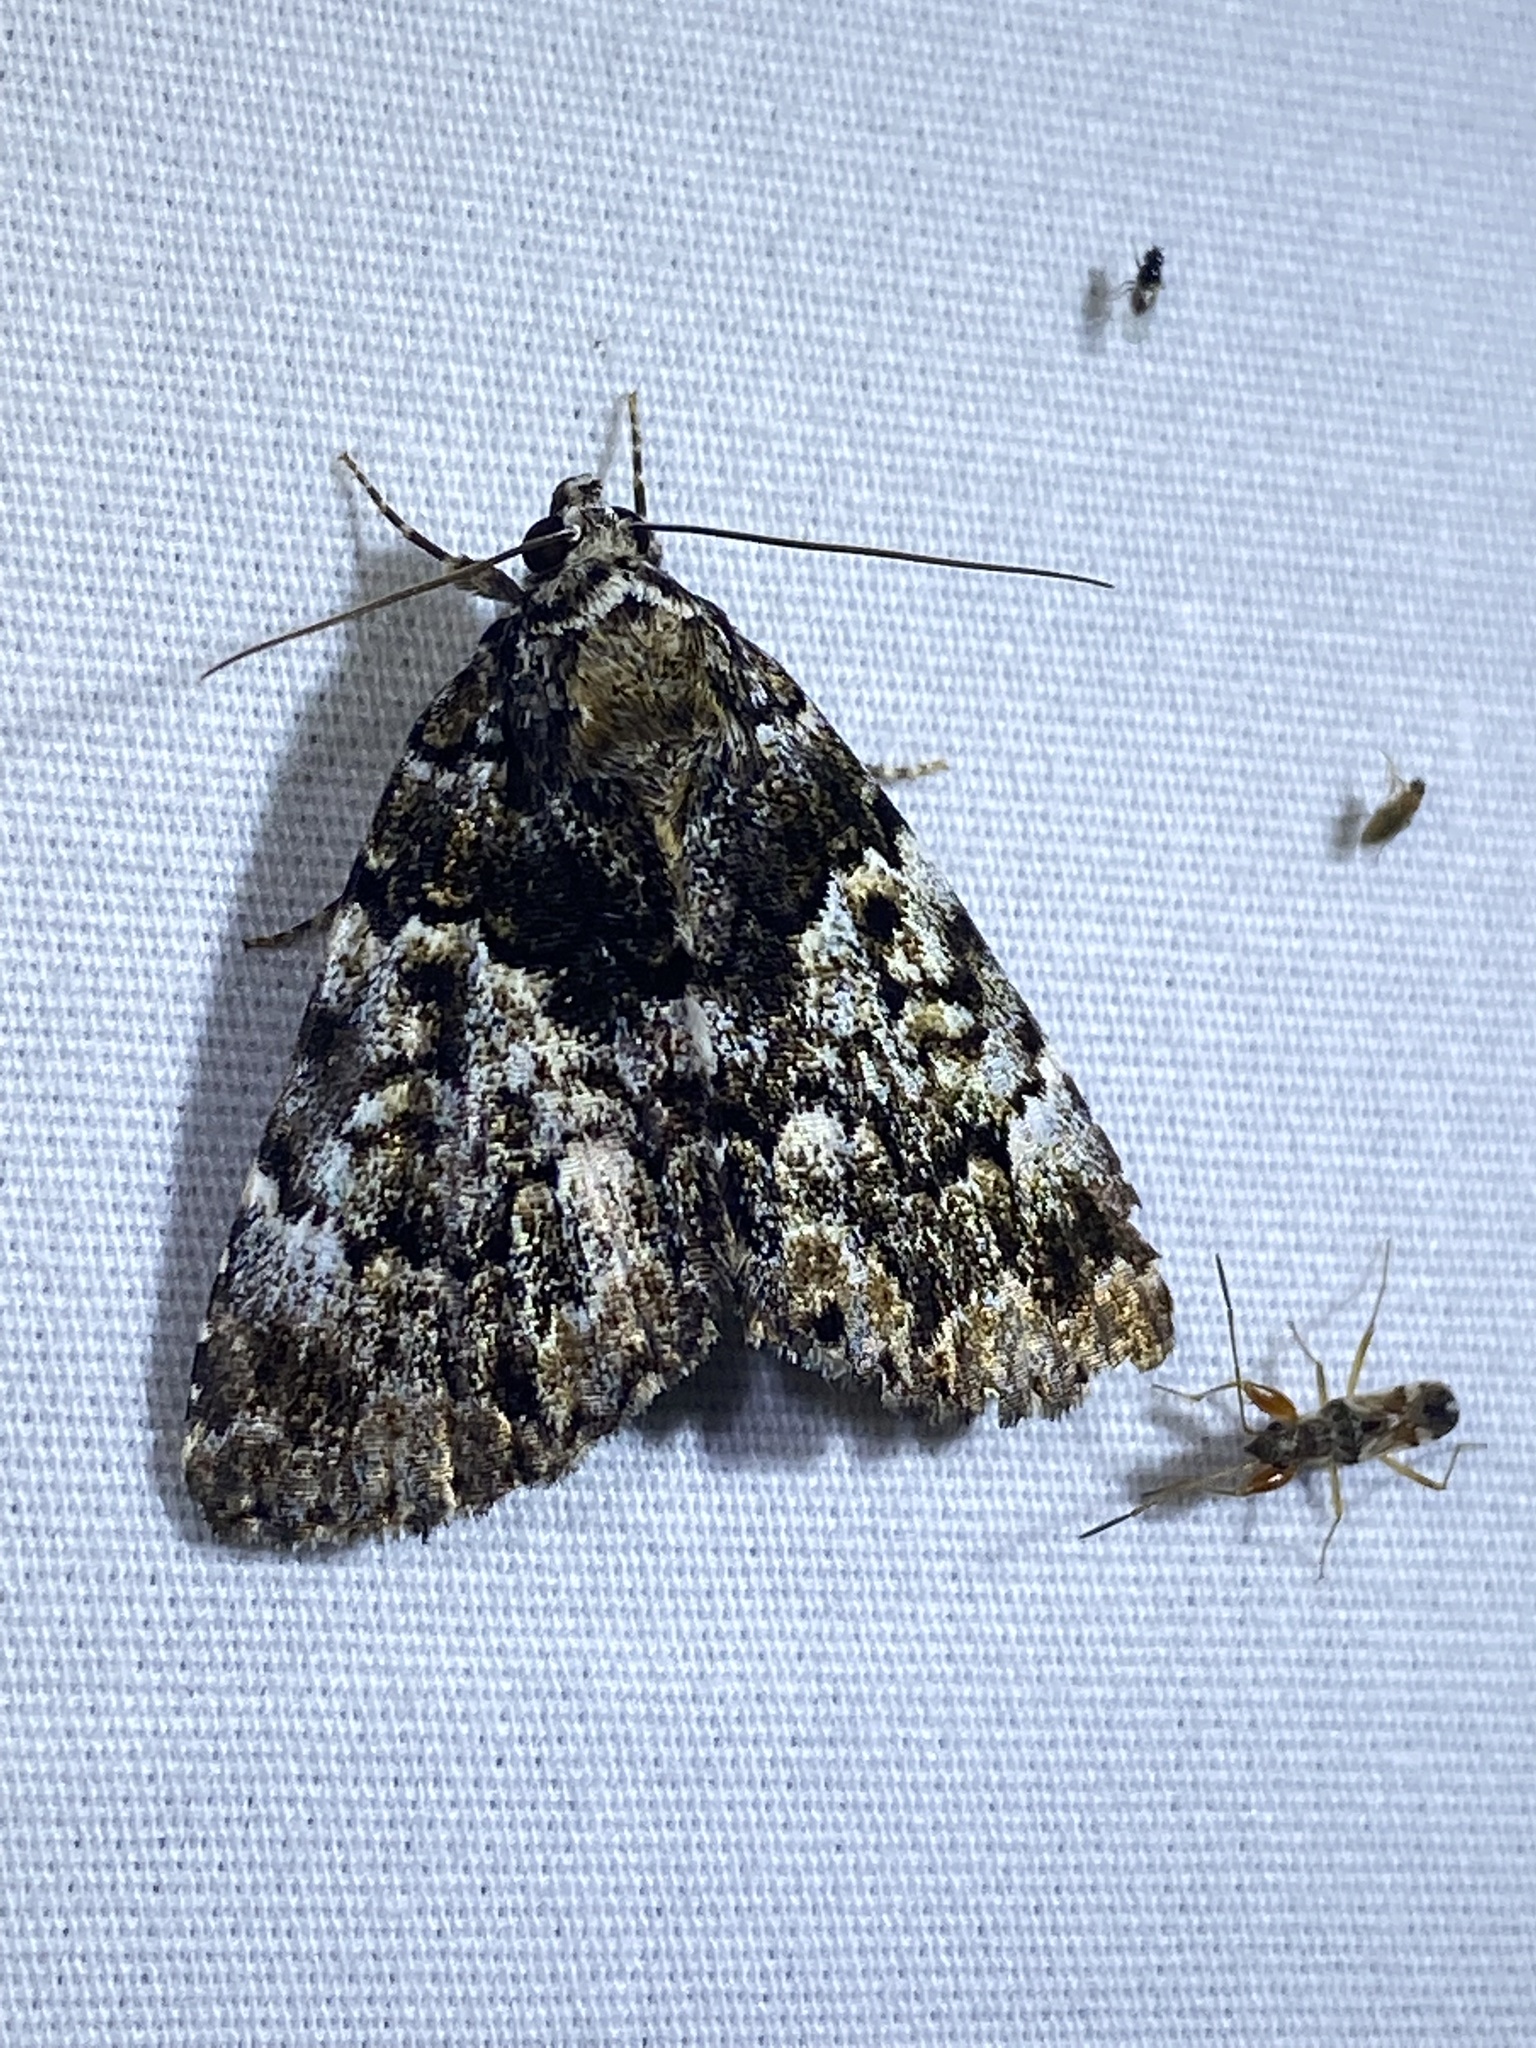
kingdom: Animalia
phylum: Arthropoda
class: Insecta
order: Lepidoptera
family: Erebidae
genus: Allotria
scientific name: Allotria elonympha
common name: False underwing
